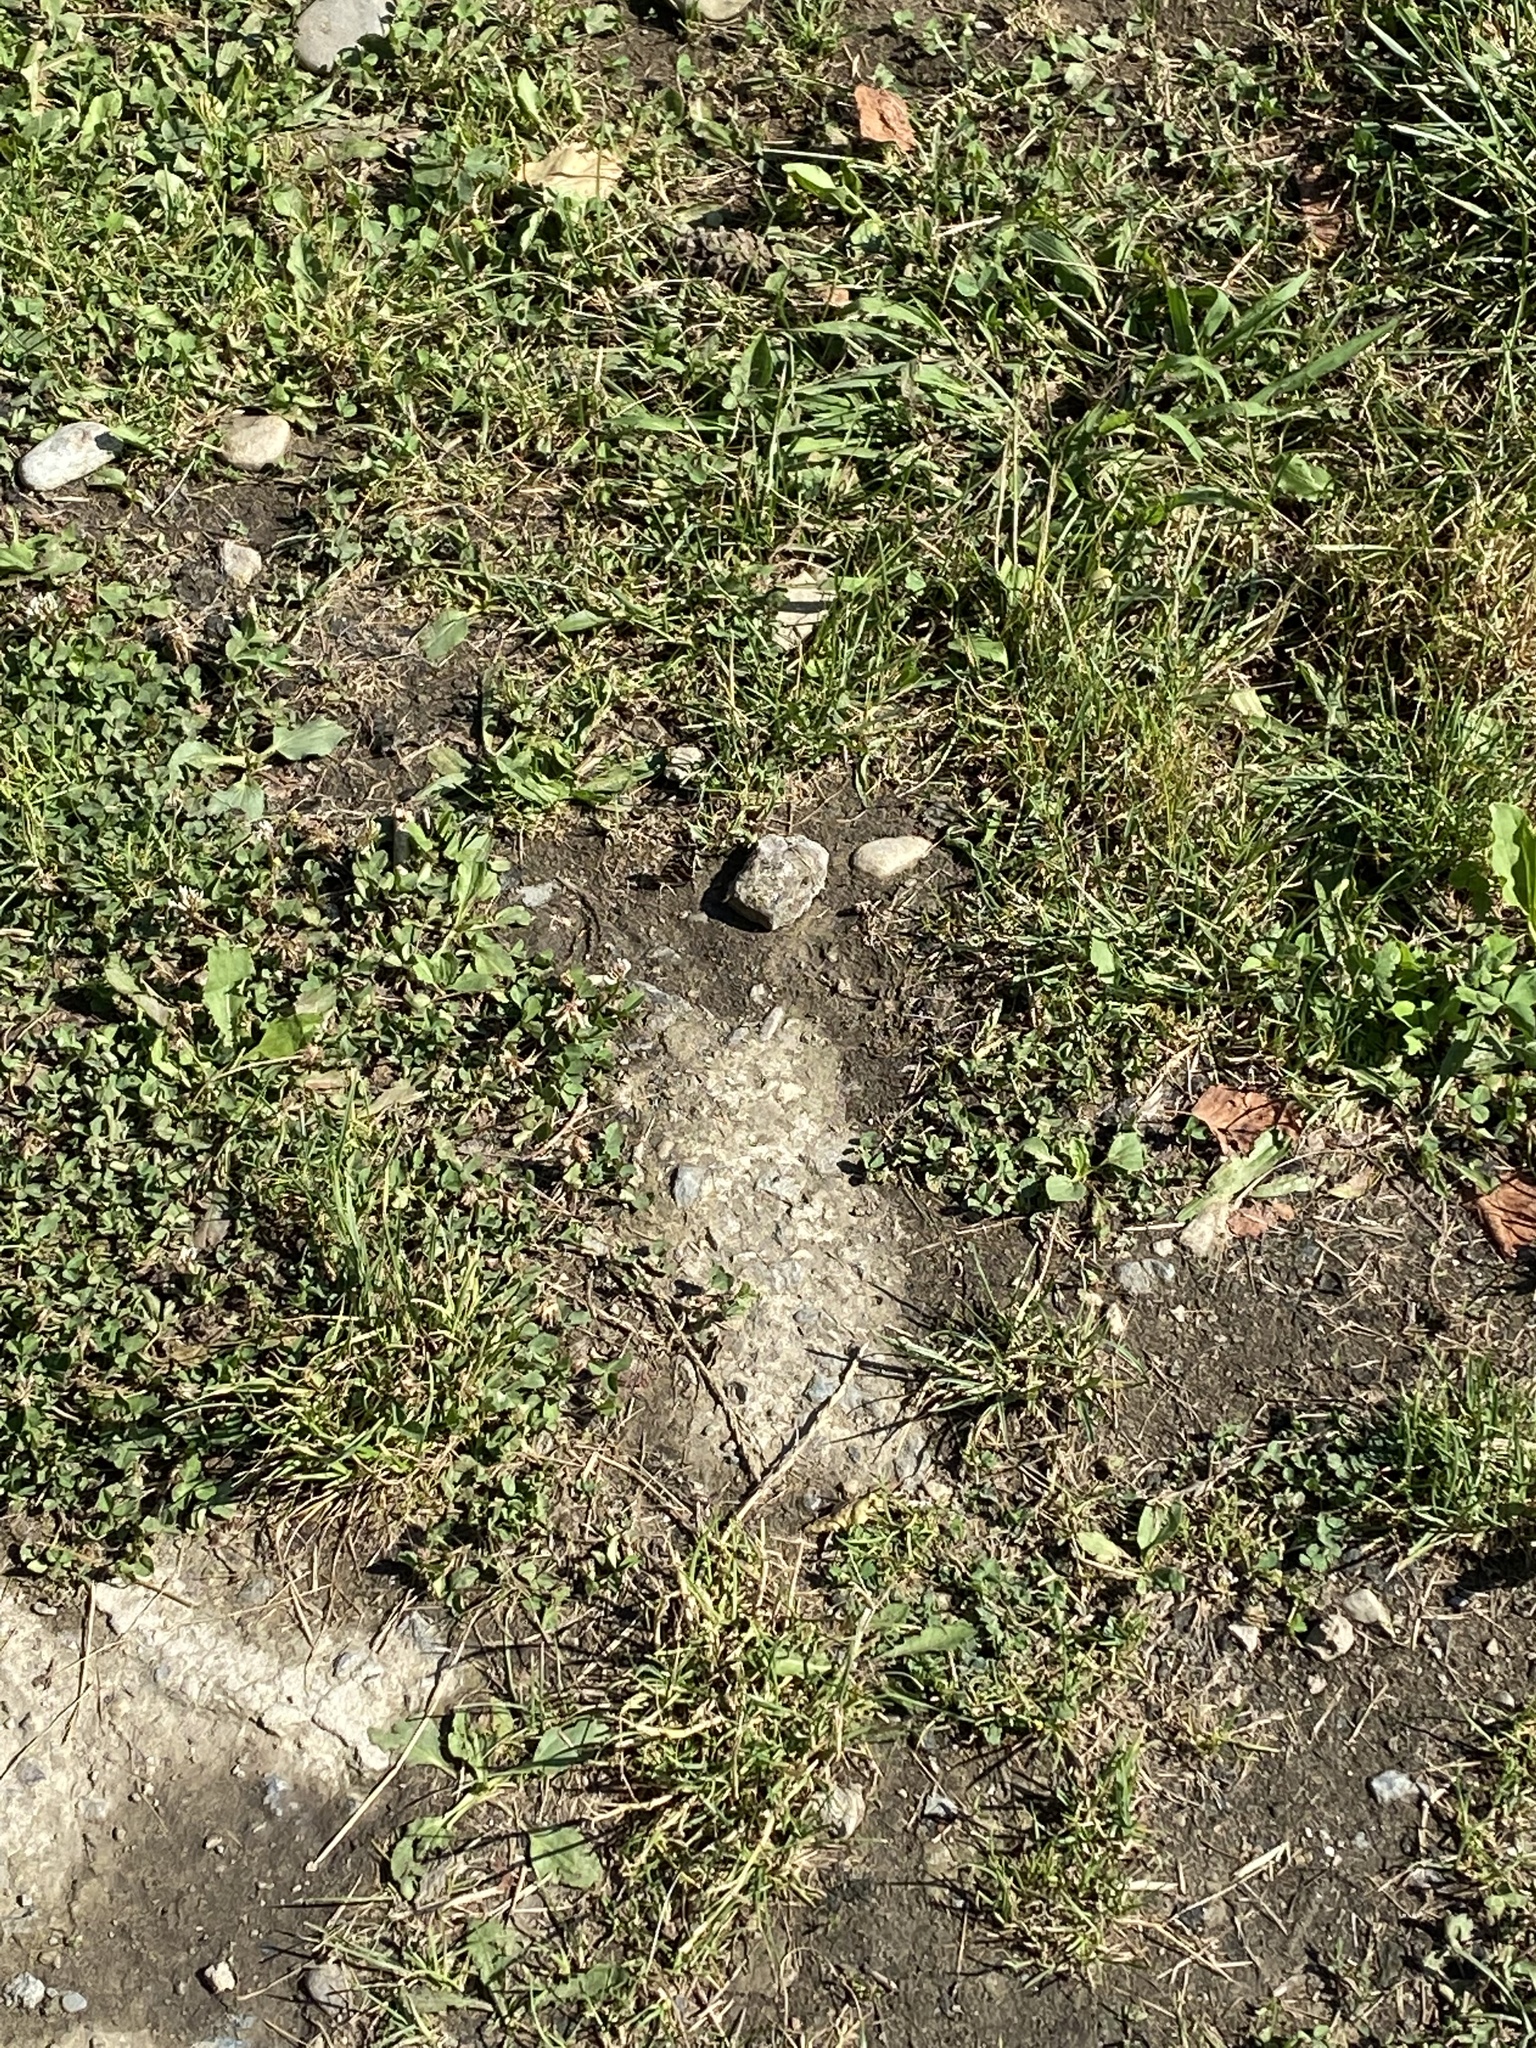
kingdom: Animalia
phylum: Arthropoda
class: Insecta
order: Lepidoptera
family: Nymphalidae
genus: Araschnia
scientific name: Araschnia levana
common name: Map butterfly
